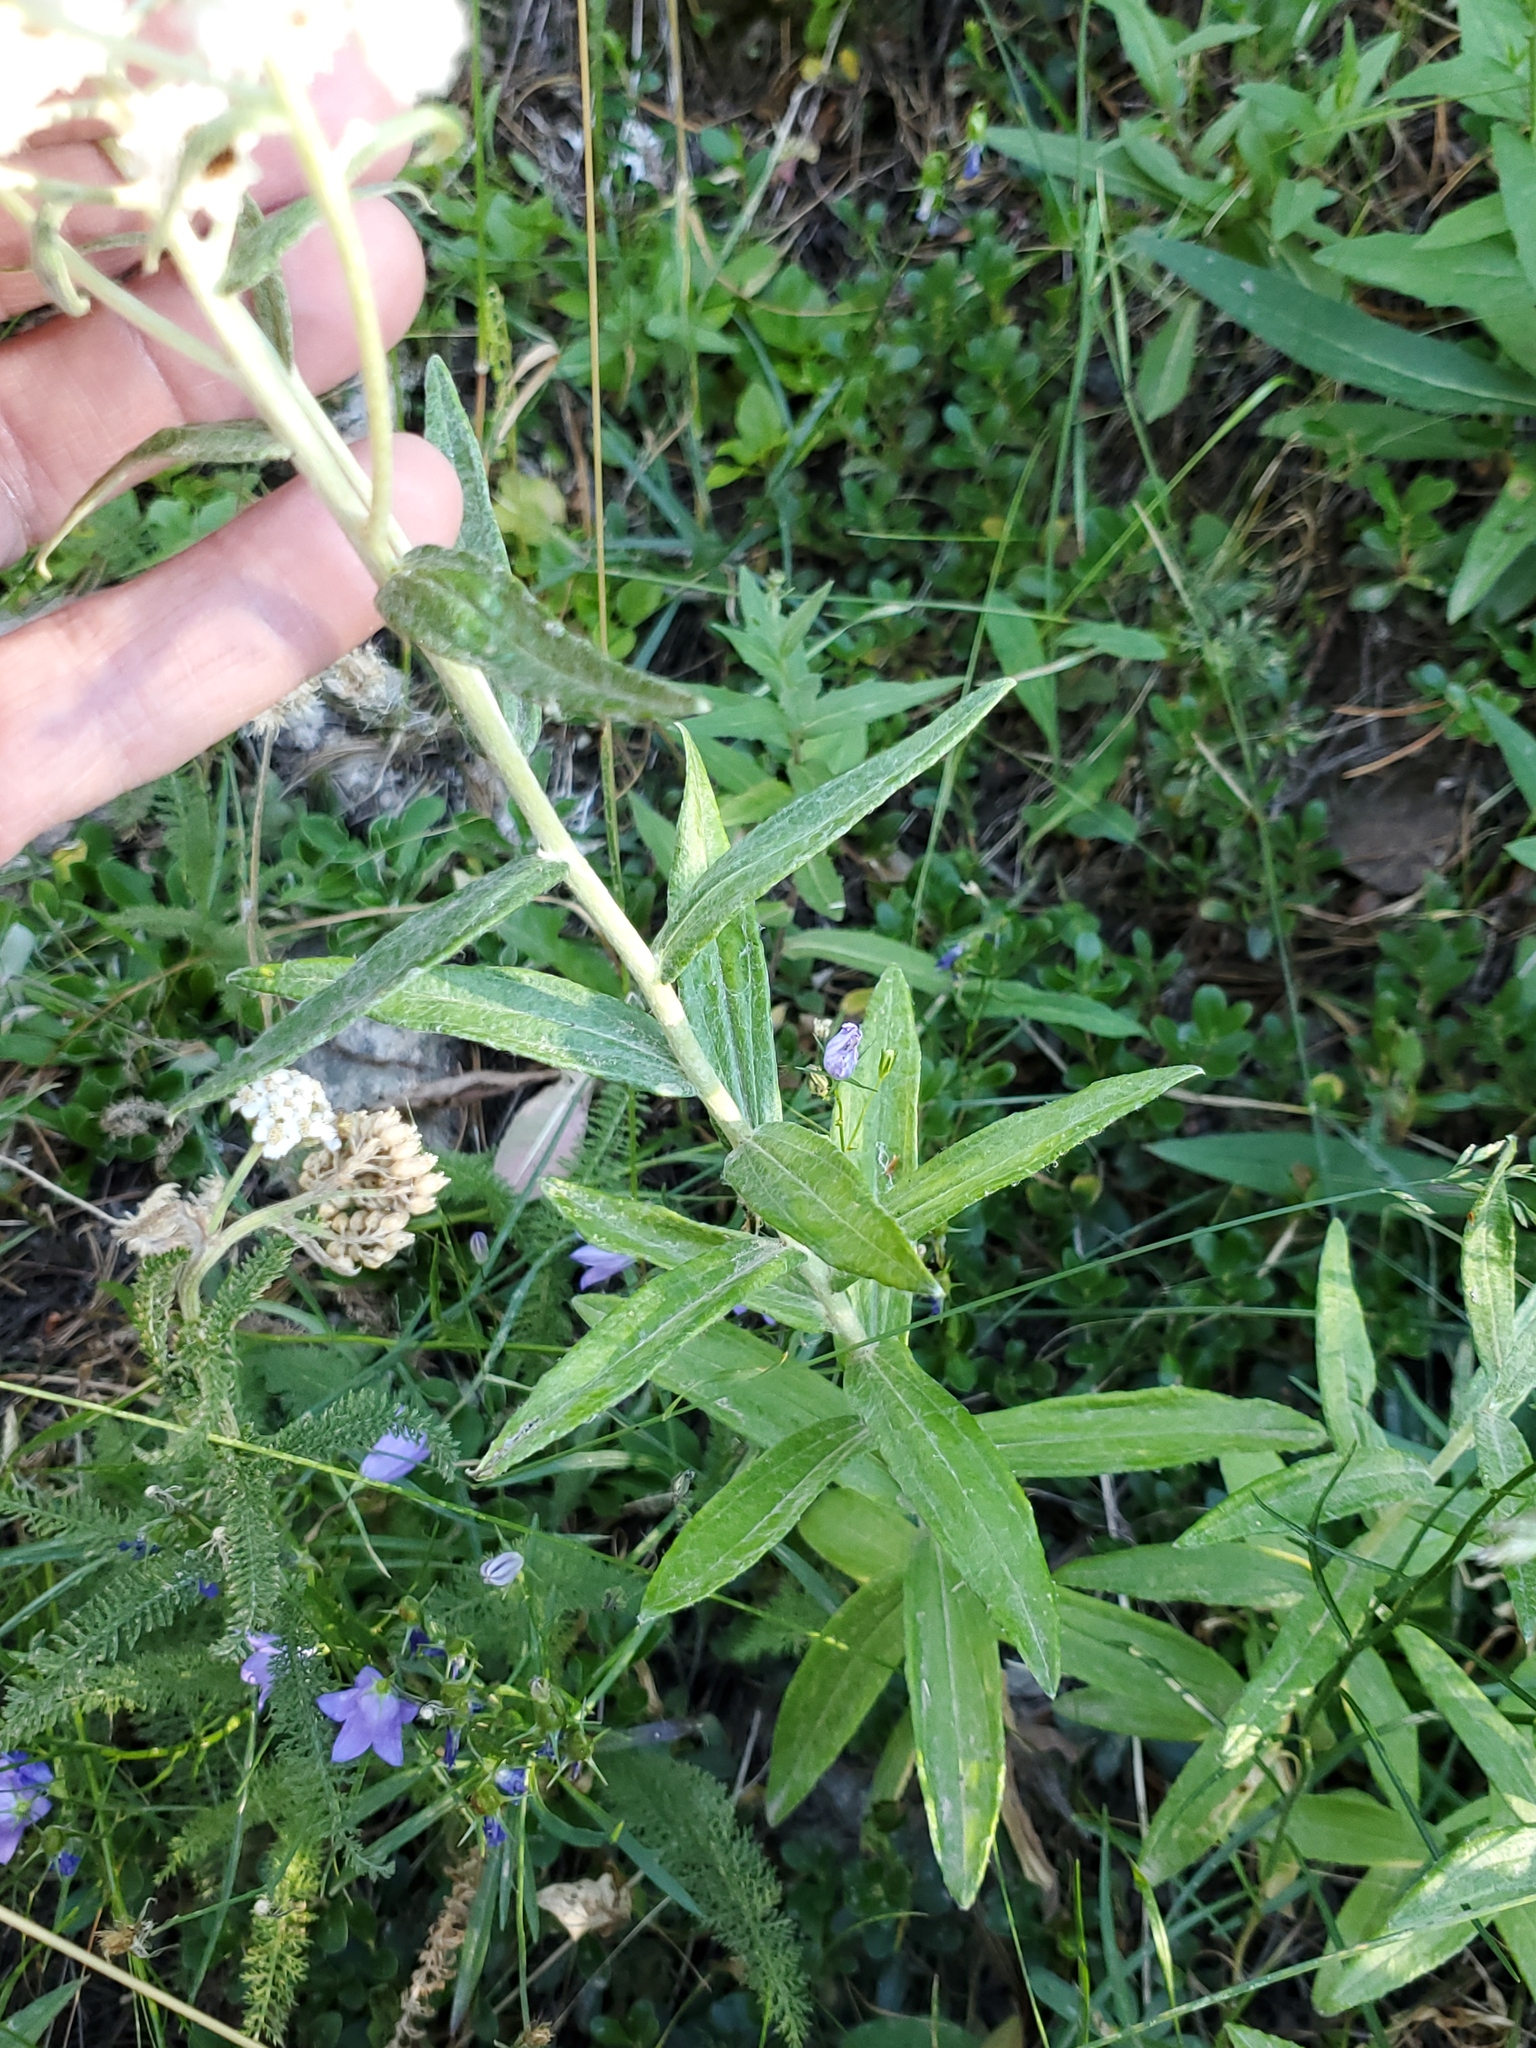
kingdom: Plantae
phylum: Tracheophyta
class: Magnoliopsida
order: Asterales
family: Asteraceae
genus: Anaphalis
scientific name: Anaphalis margaritacea
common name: Pearly everlasting
